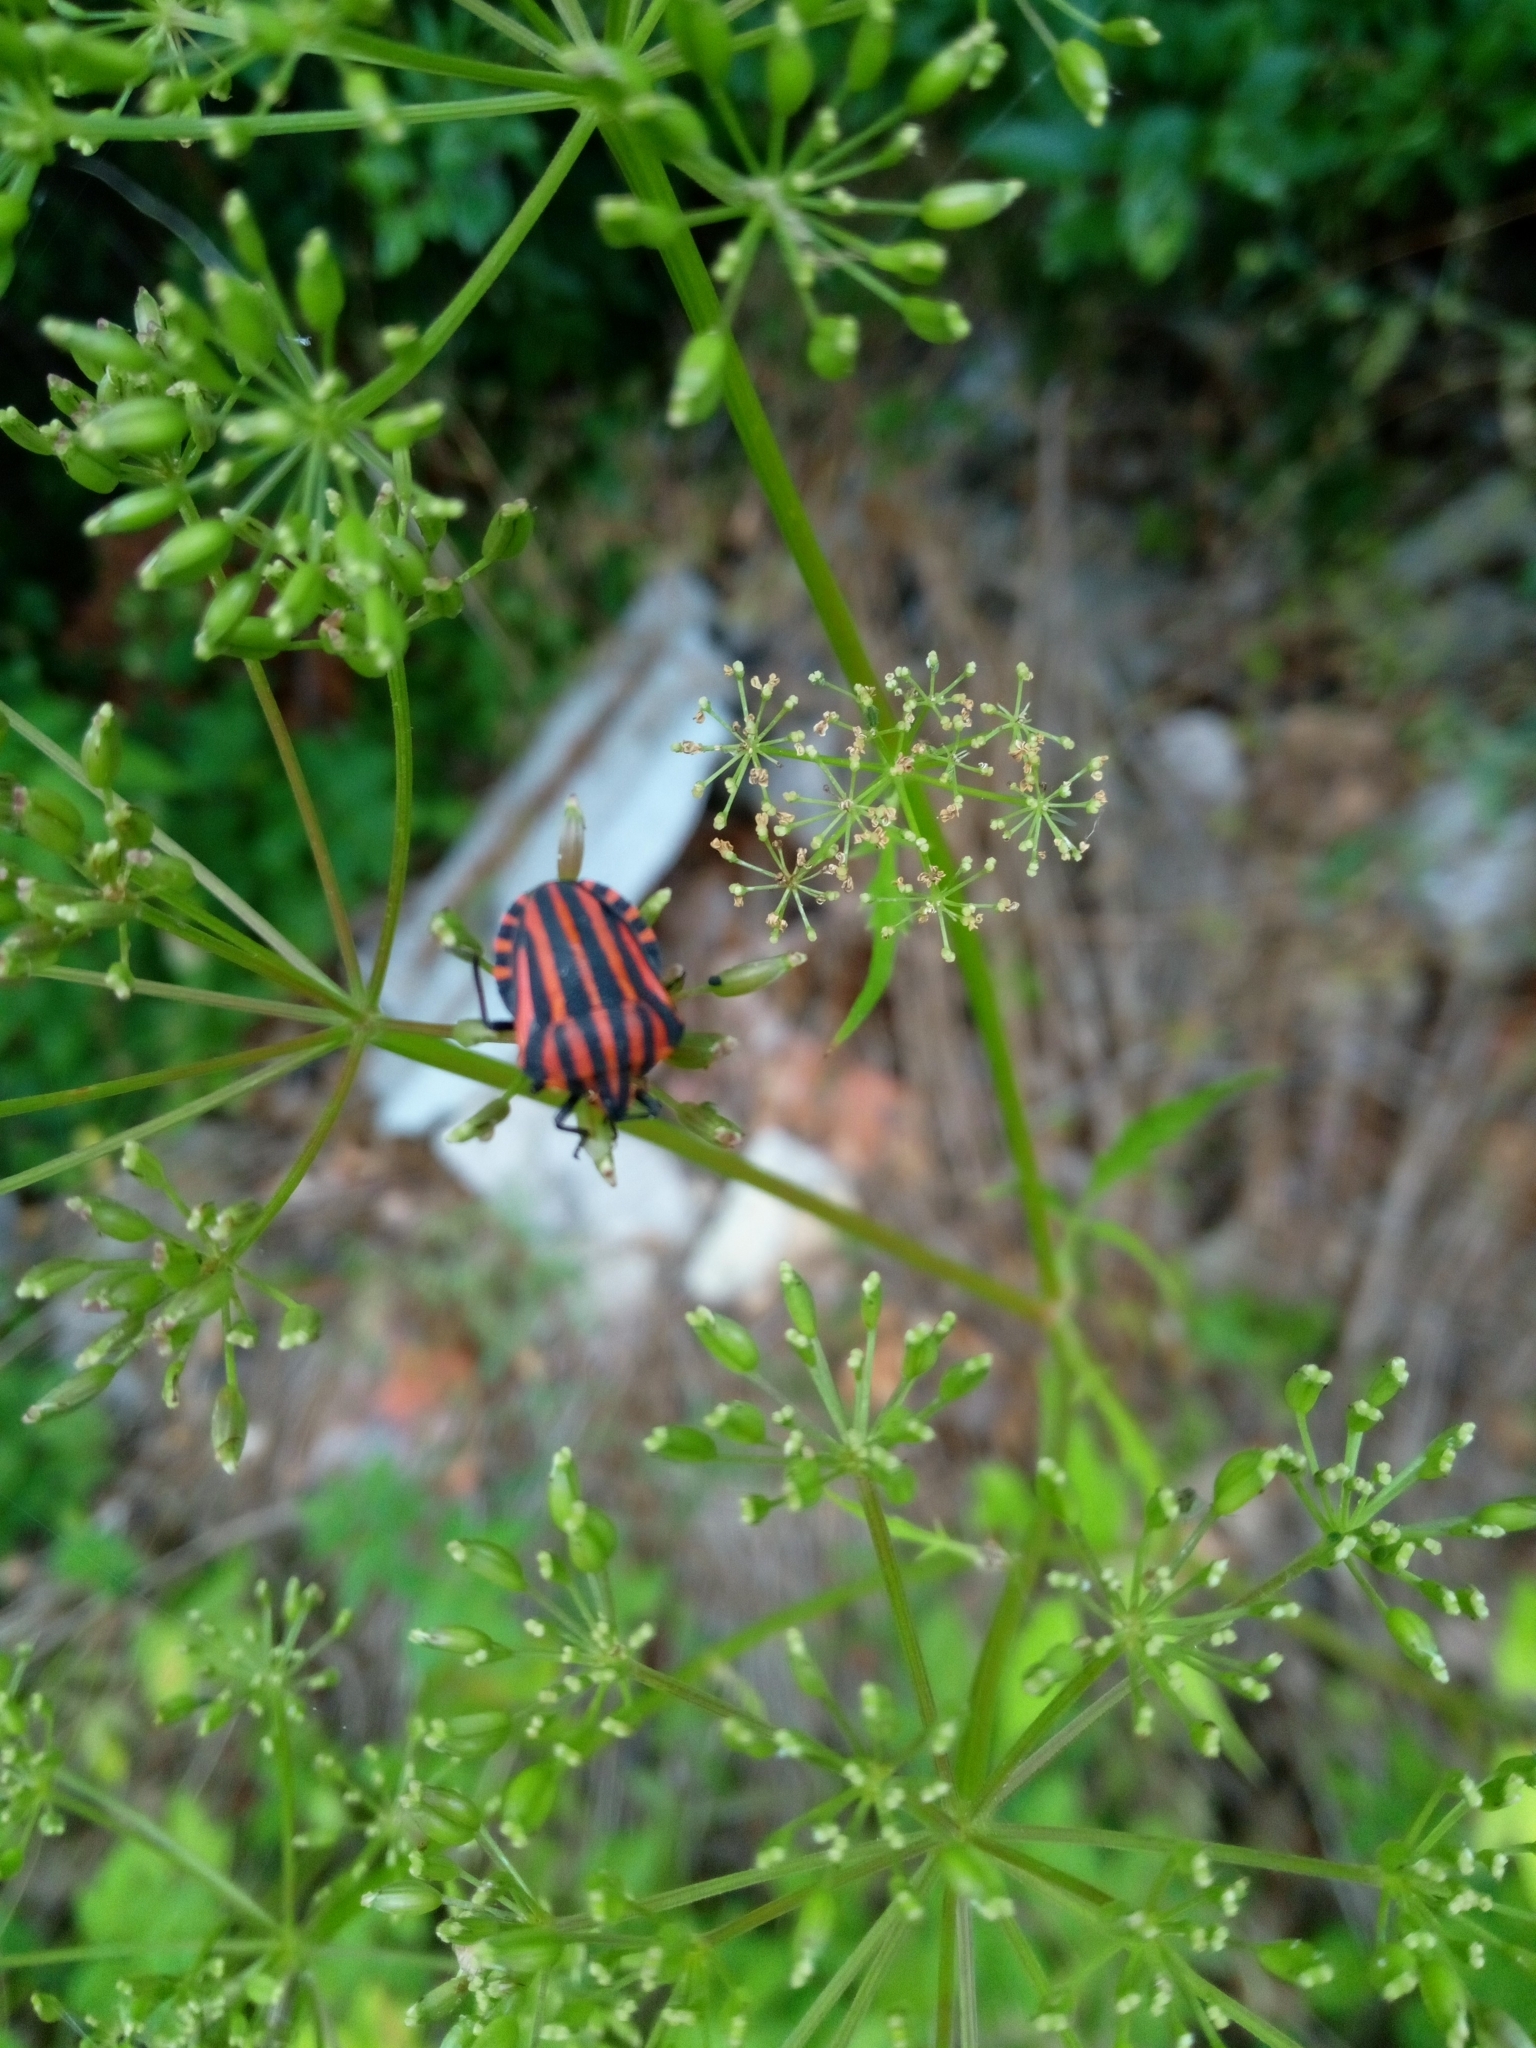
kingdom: Animalia
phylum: Arthropoda
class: Insecta
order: Hemiptera
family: Pentatomidae
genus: Graphosoma
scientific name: Graphosoma italicum
